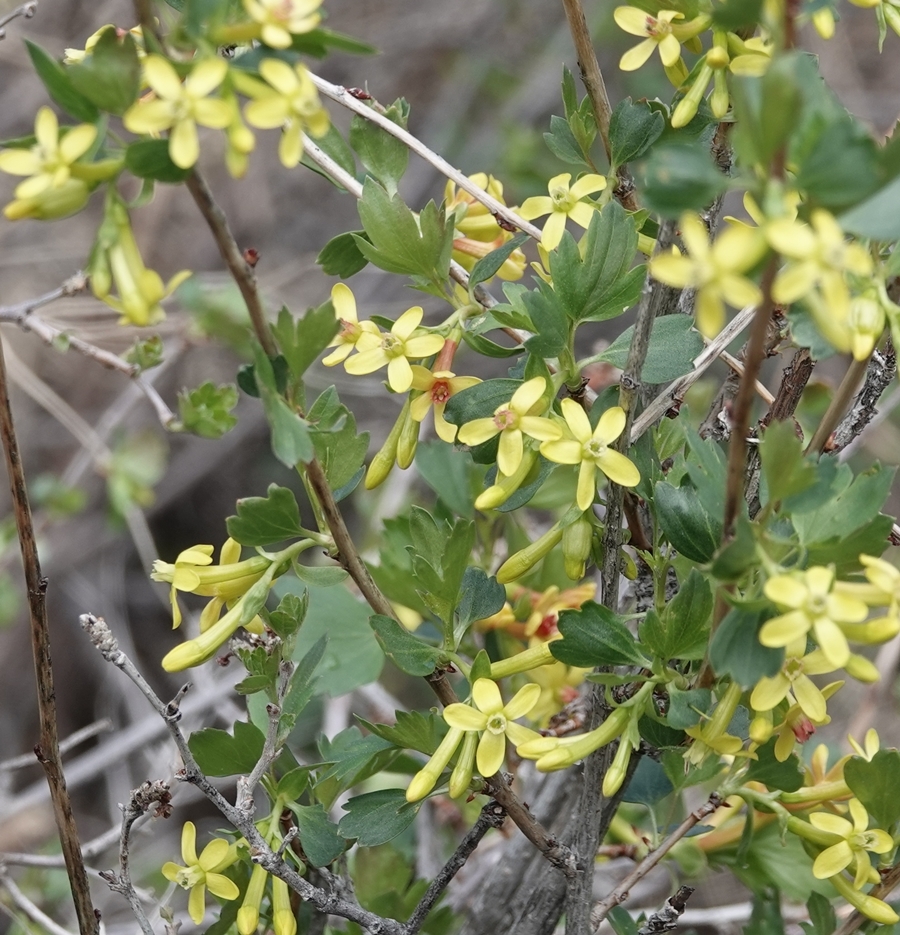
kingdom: Plantae
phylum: Tracheophyta
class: Magnoliopsida
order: Saxifragales
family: Grossulariaceae
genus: Ribes
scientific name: Ribes aureum
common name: Golden currant
